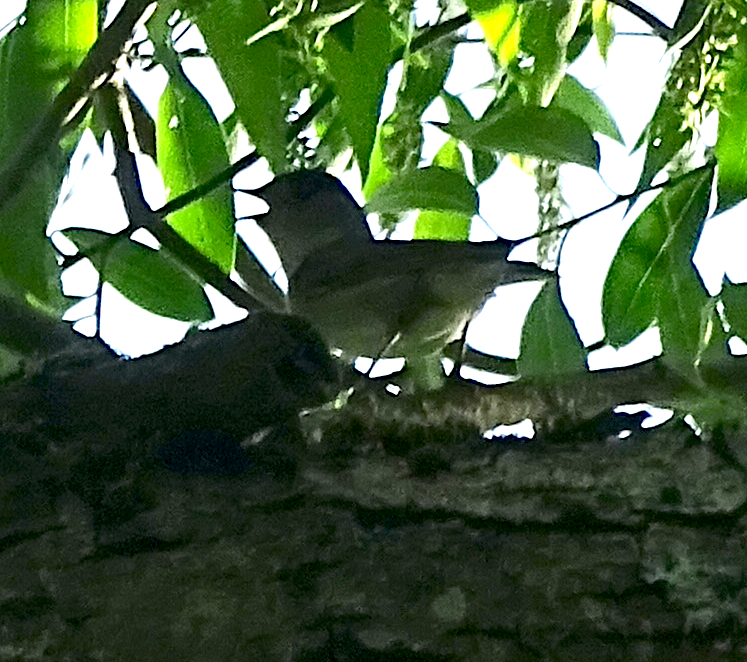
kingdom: Animalia
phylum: Chordata
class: Aves
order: Passeriformes
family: Sylviidae
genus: Sylvia
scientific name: Sylvia atricapilla
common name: Eurasian blackcap
